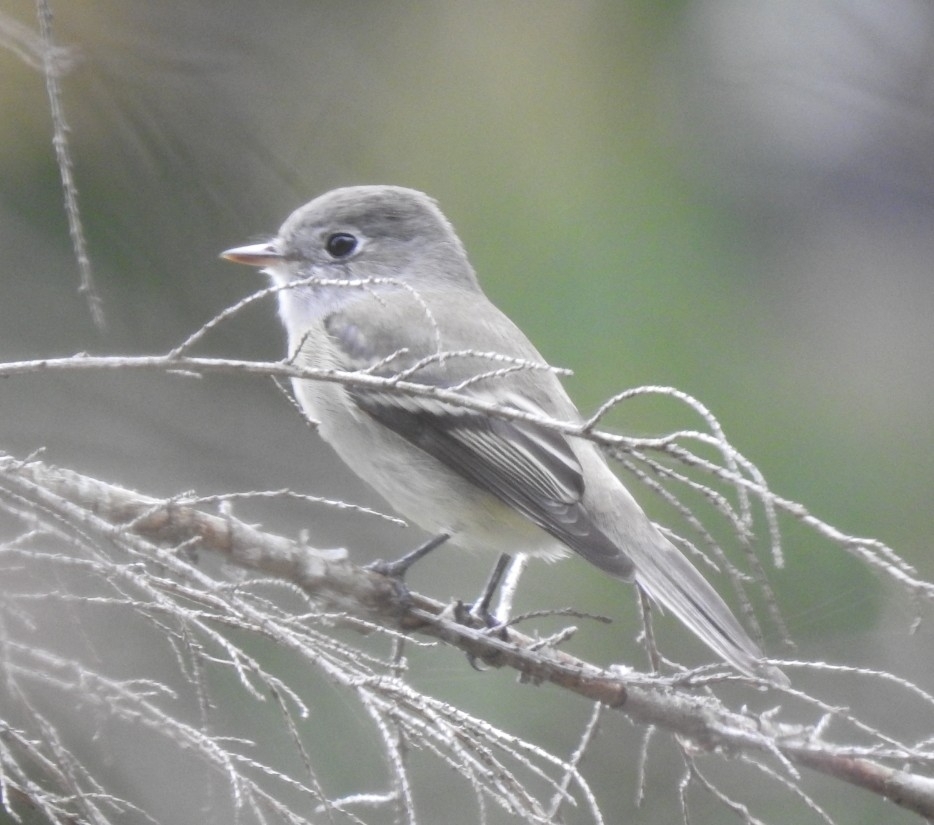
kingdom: Animalia
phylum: Chordata
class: Aves
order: Passeriformes
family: Tyrannidae
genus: Empidonax
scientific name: Empidonax hammondii
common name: Hammond's flycatcher
